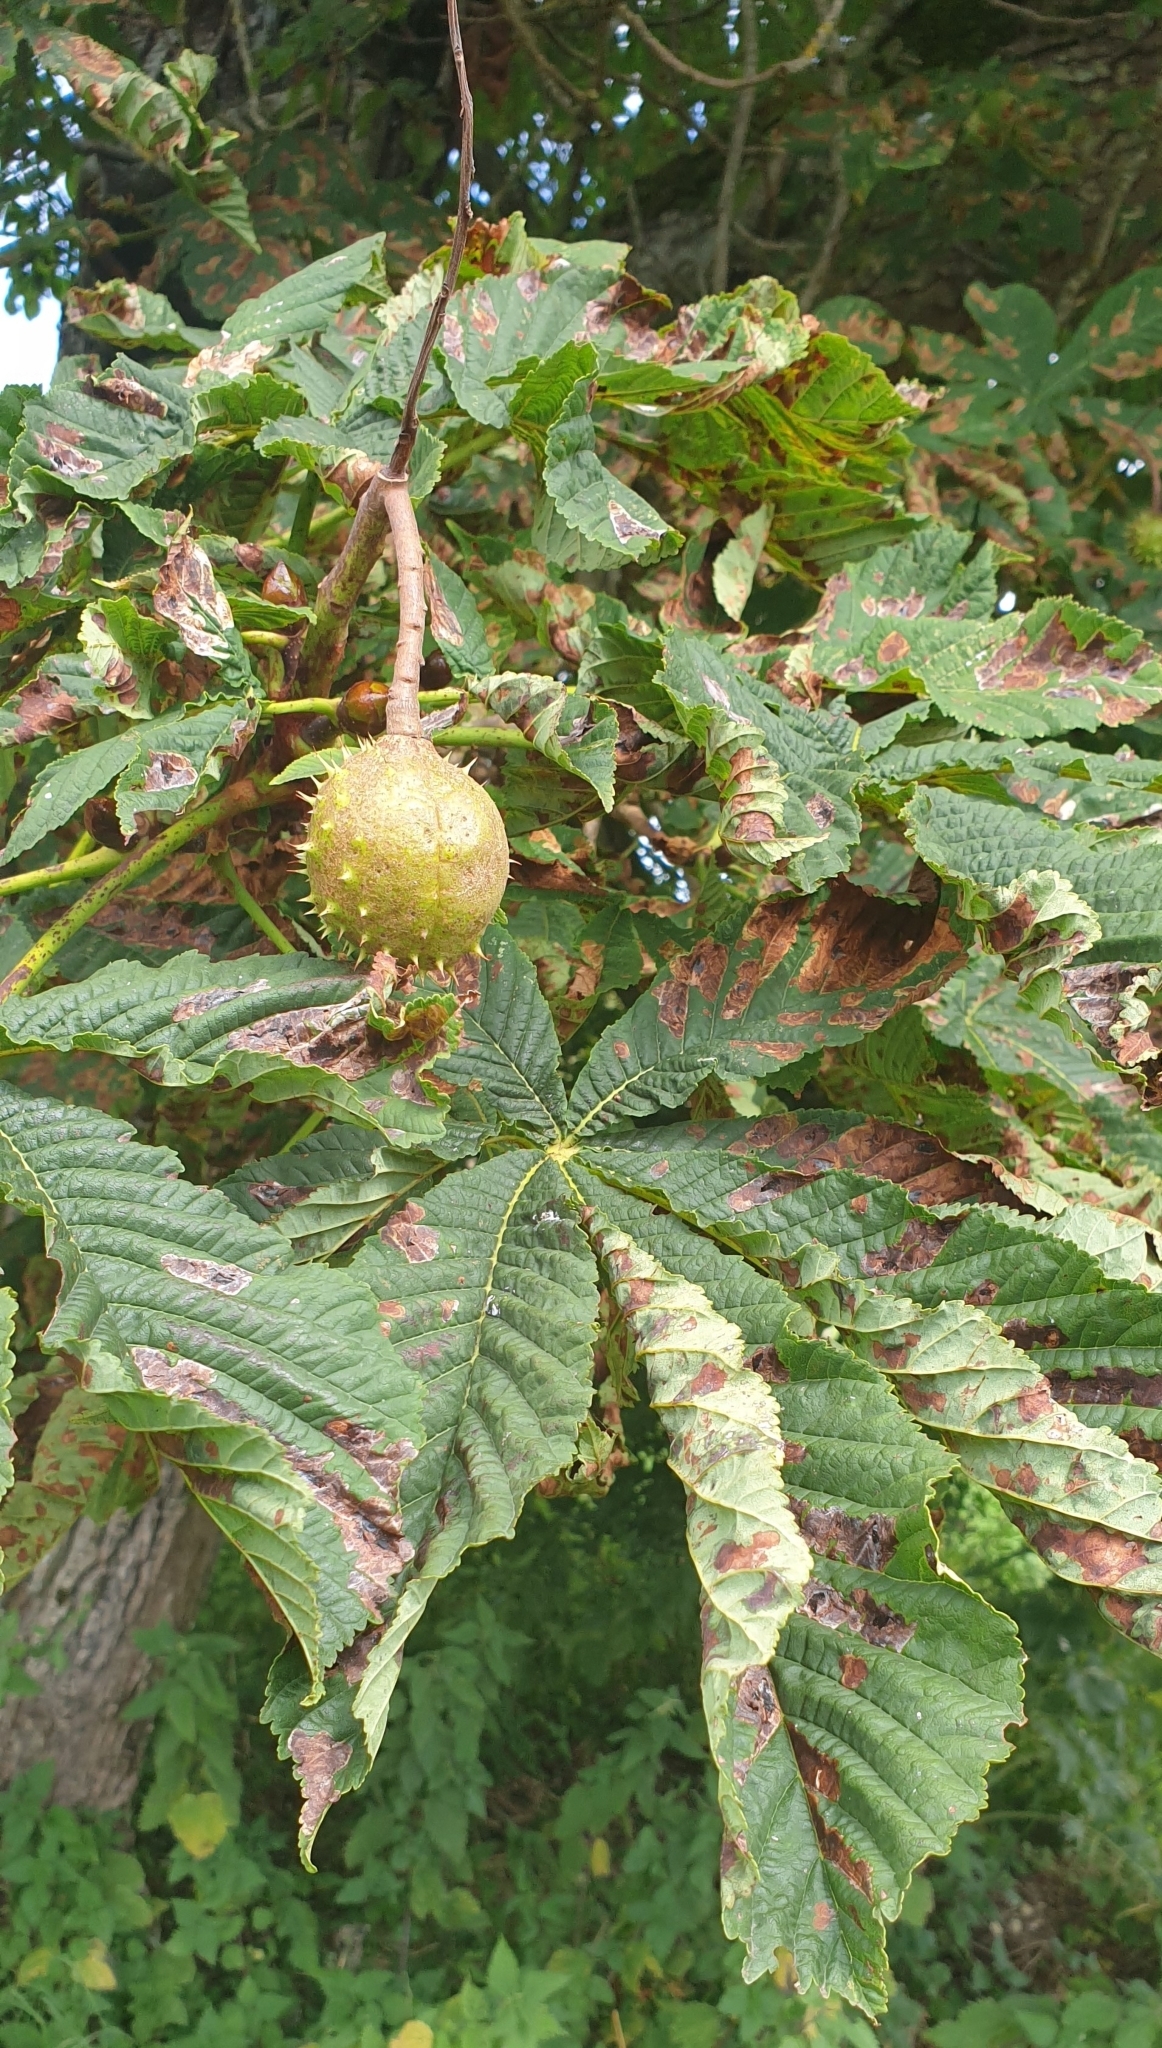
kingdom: Plantae
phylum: Tracheophyta
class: Magnoliopsida
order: Sapindales
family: Sapindaceae
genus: Aesculus
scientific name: Aesculus hippocastanum
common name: Horse-chestnut
